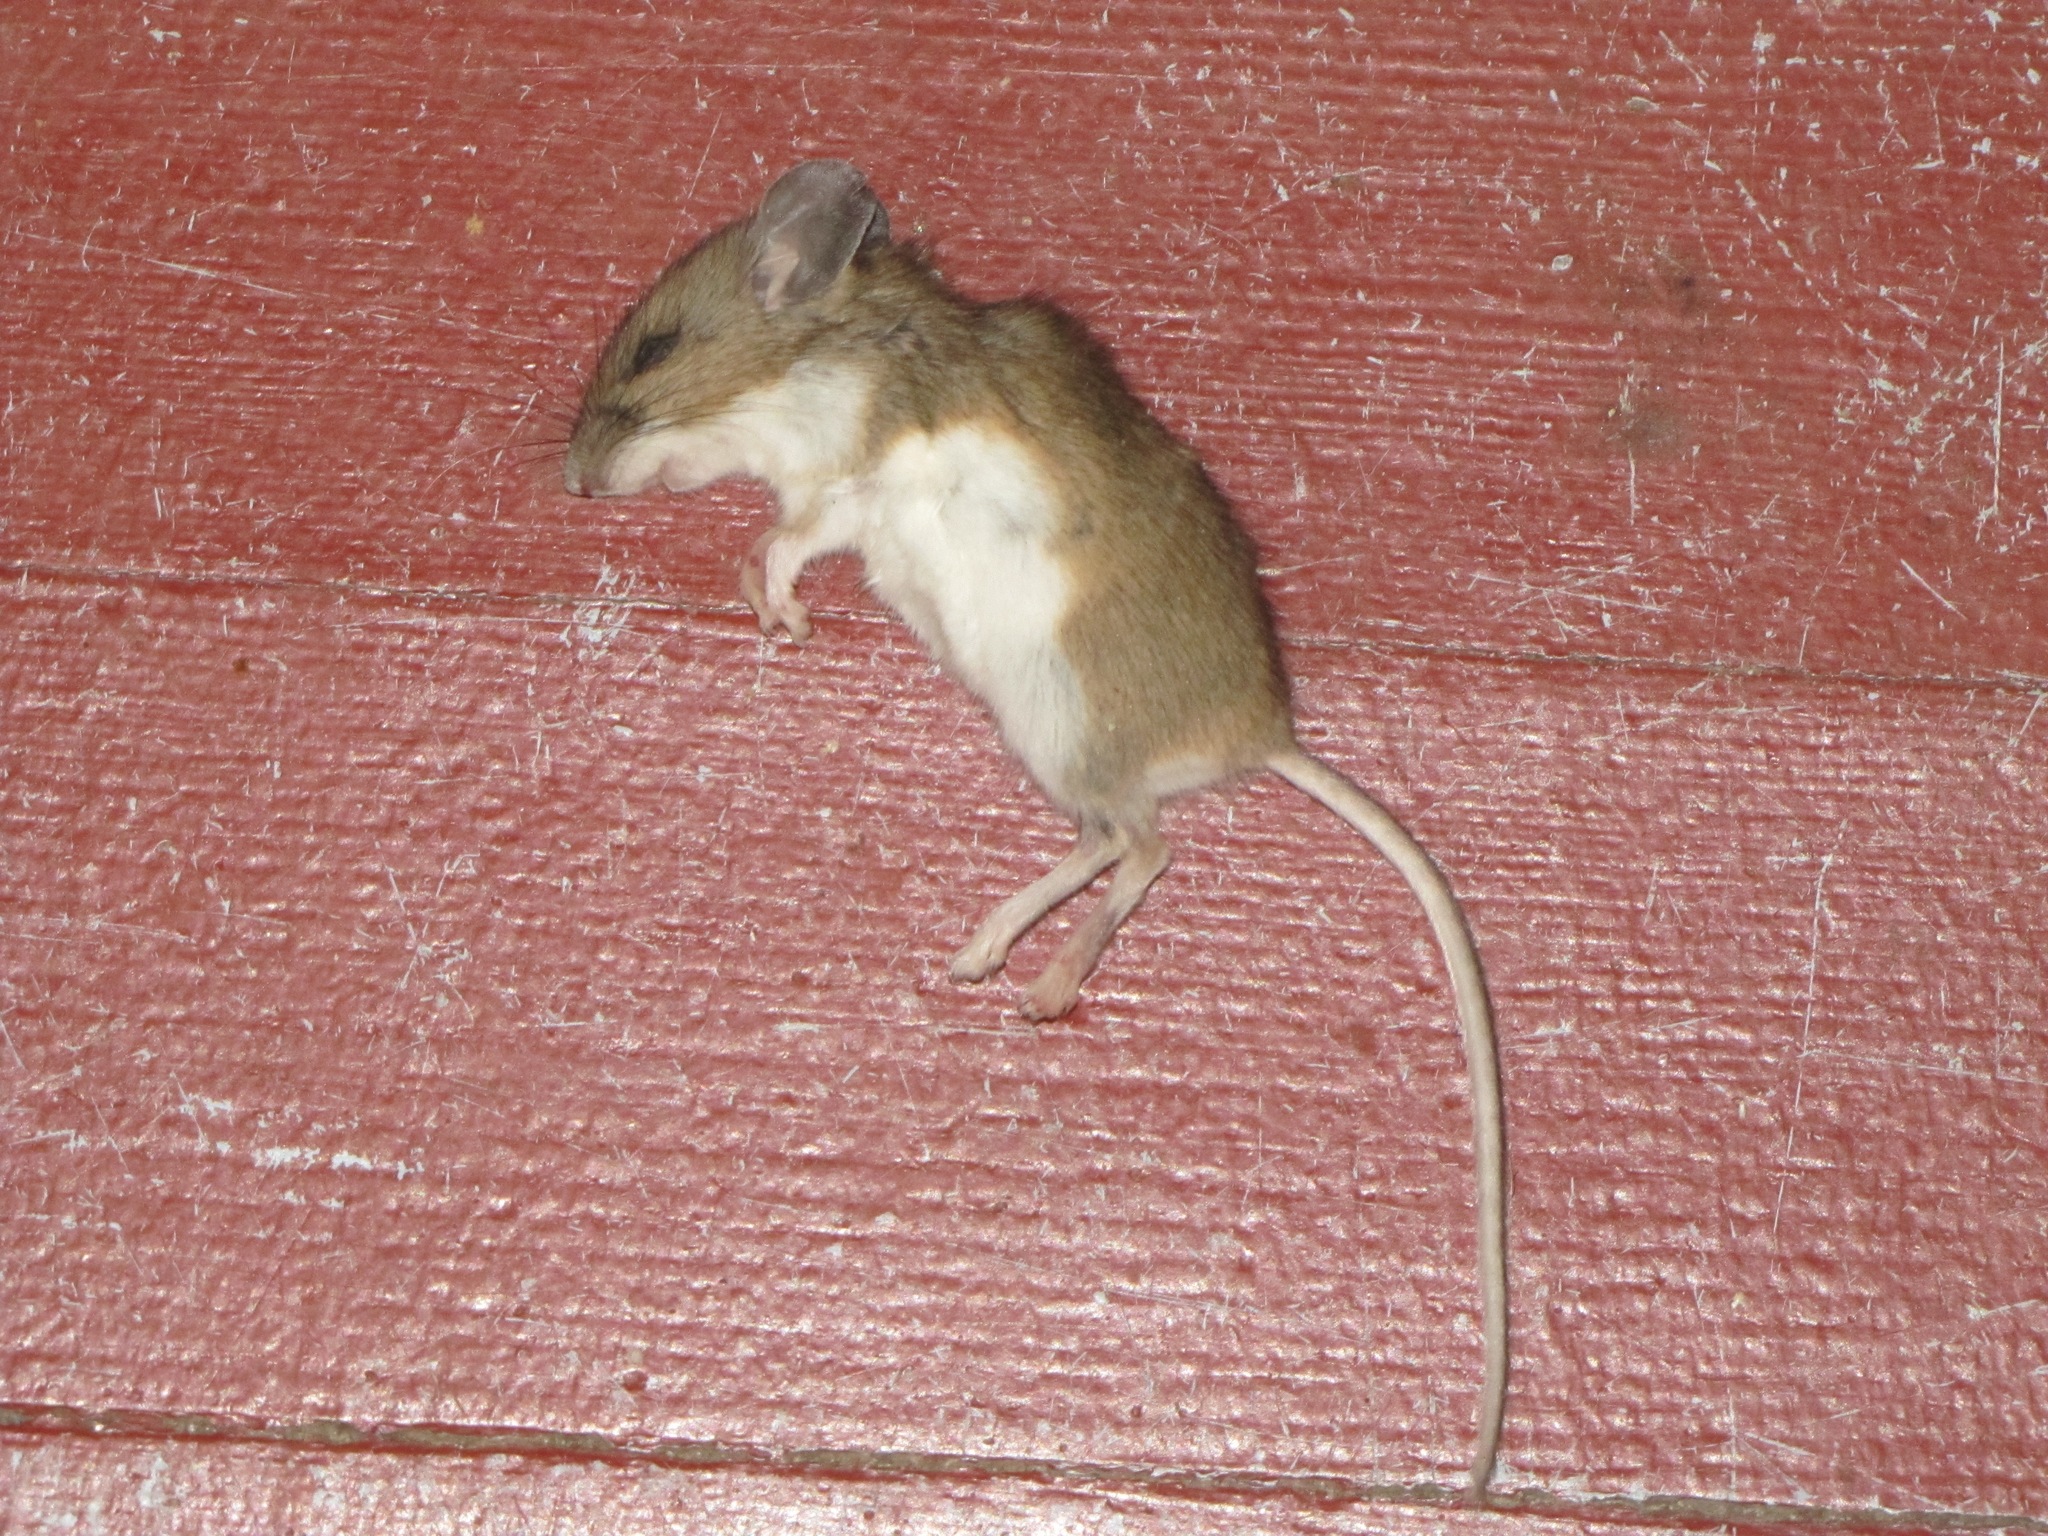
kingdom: Animalia
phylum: Chordata
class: Mammalia
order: Rodentia
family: Cricetidae
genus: Peromyscus
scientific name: Peromyscus leucopus
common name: White-footed deermouse
